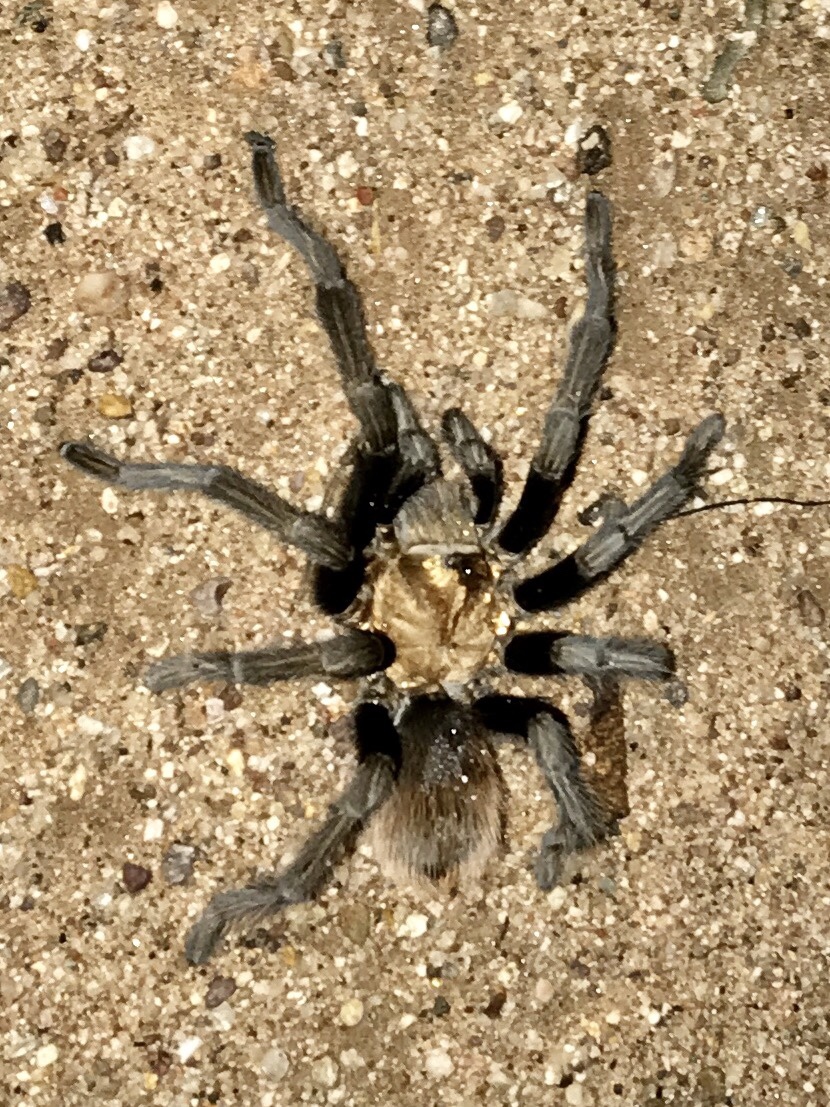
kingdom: Animalia
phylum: Arthropoda
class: Arachnida
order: Araneae
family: Theraphosidae
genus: Aphonopelma
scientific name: Aphonopelma chalcodes
